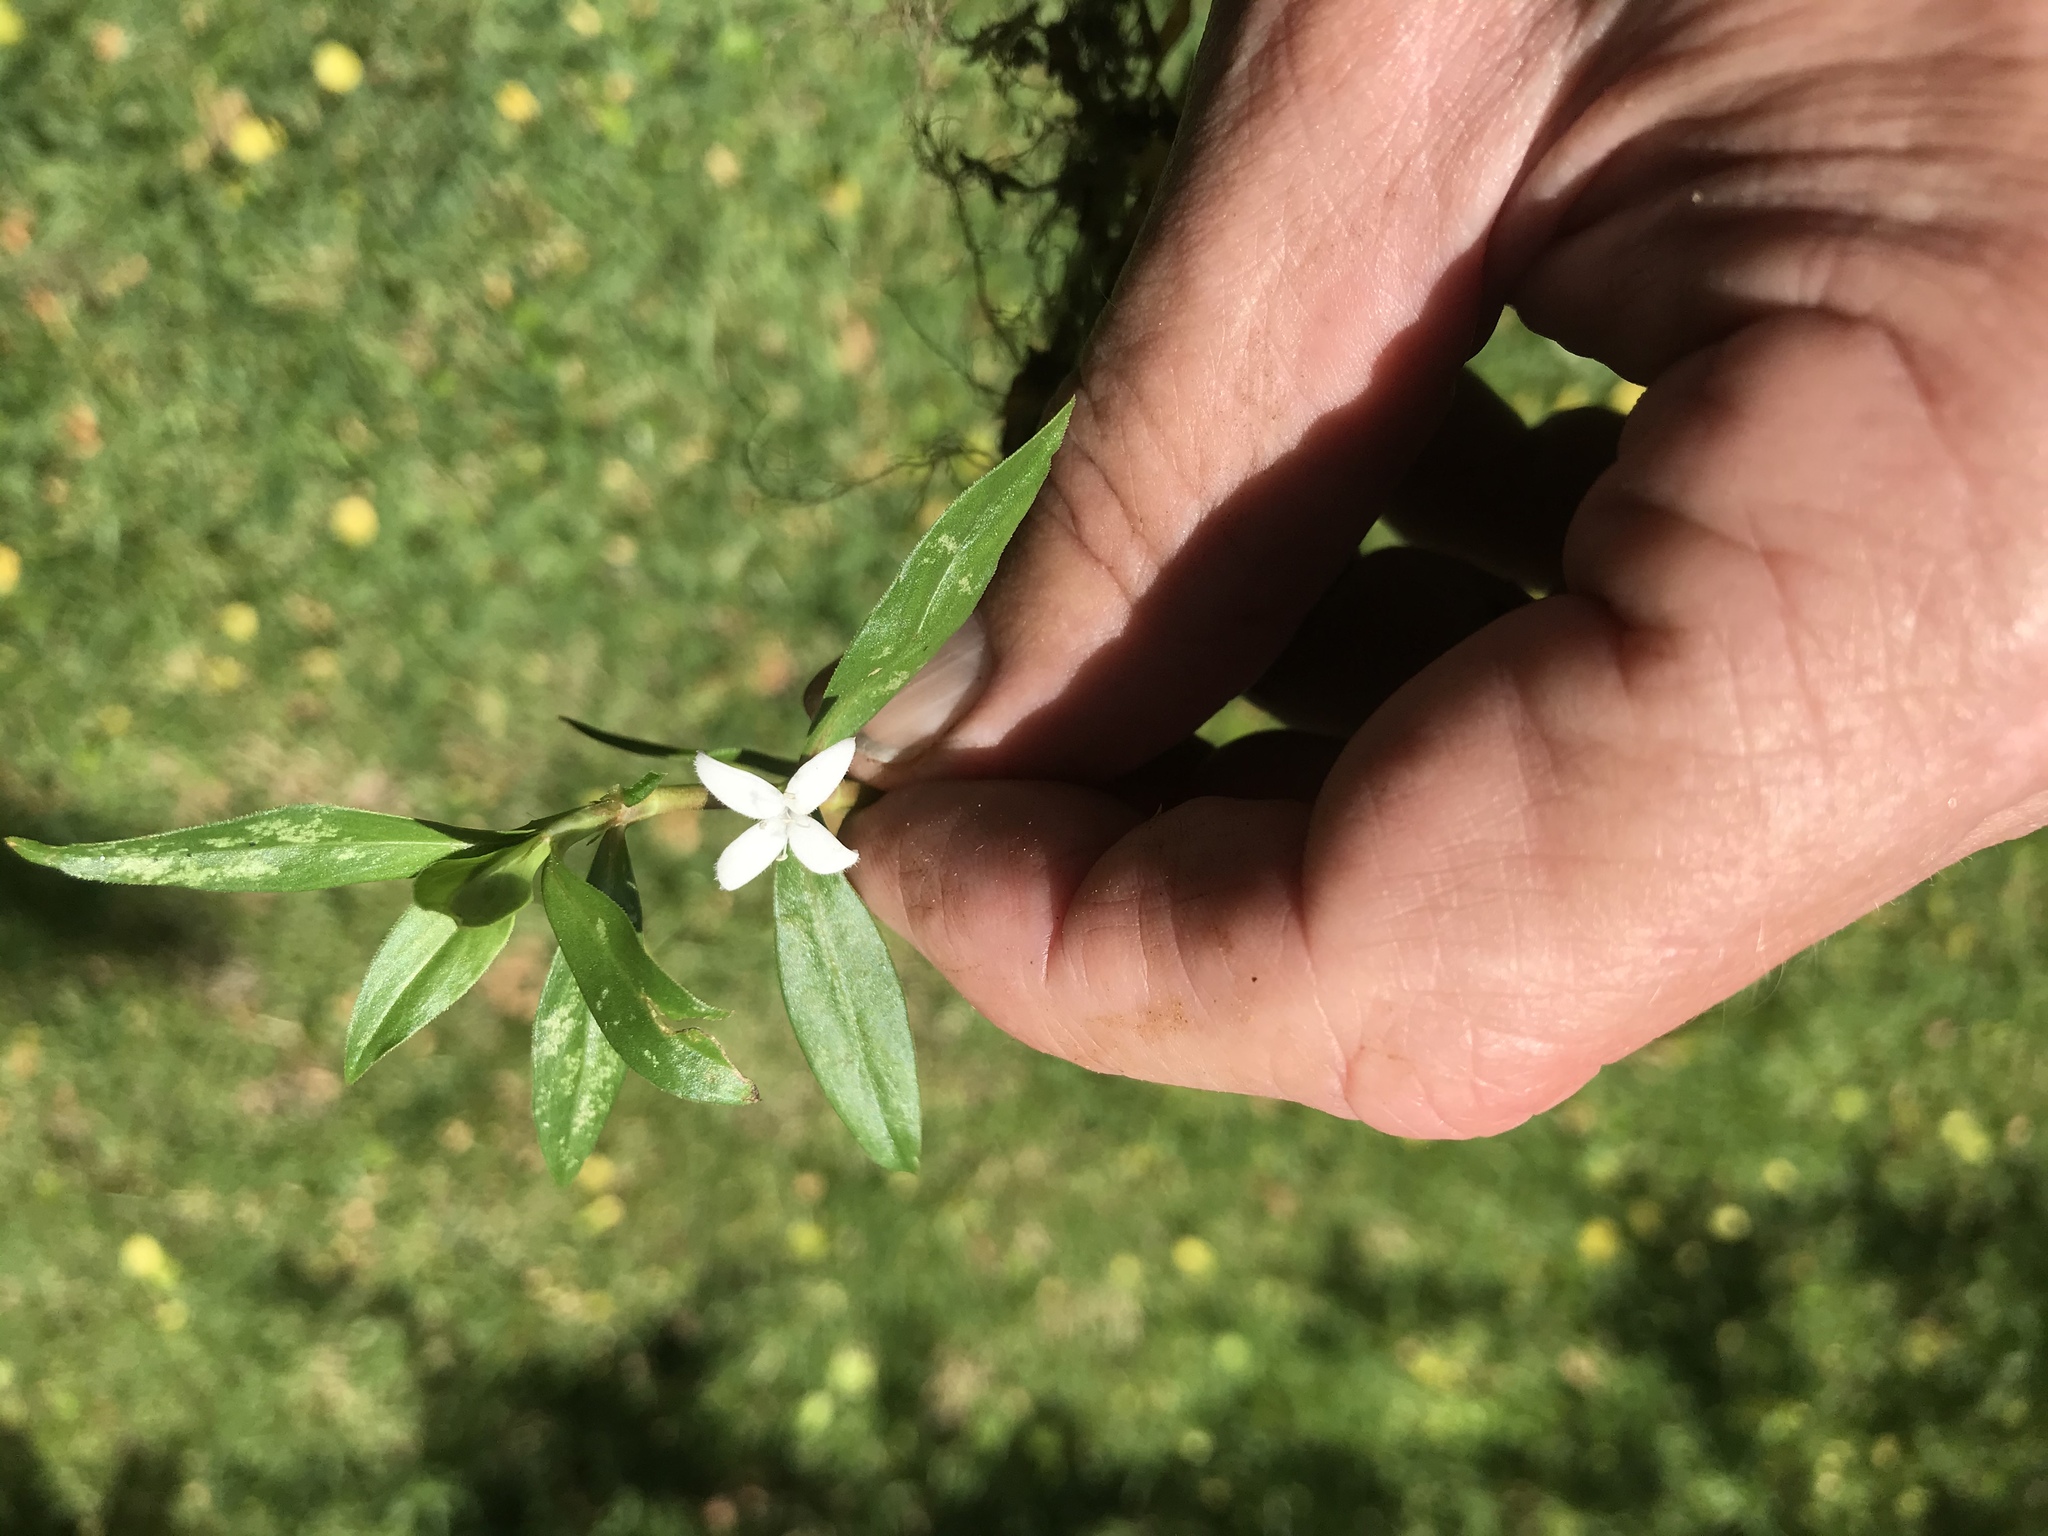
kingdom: Plantae
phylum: Tracheophyta
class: Magnoliopsida
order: Gentianales
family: Rubiaceae
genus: Diodia
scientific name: Diodia virginiana
